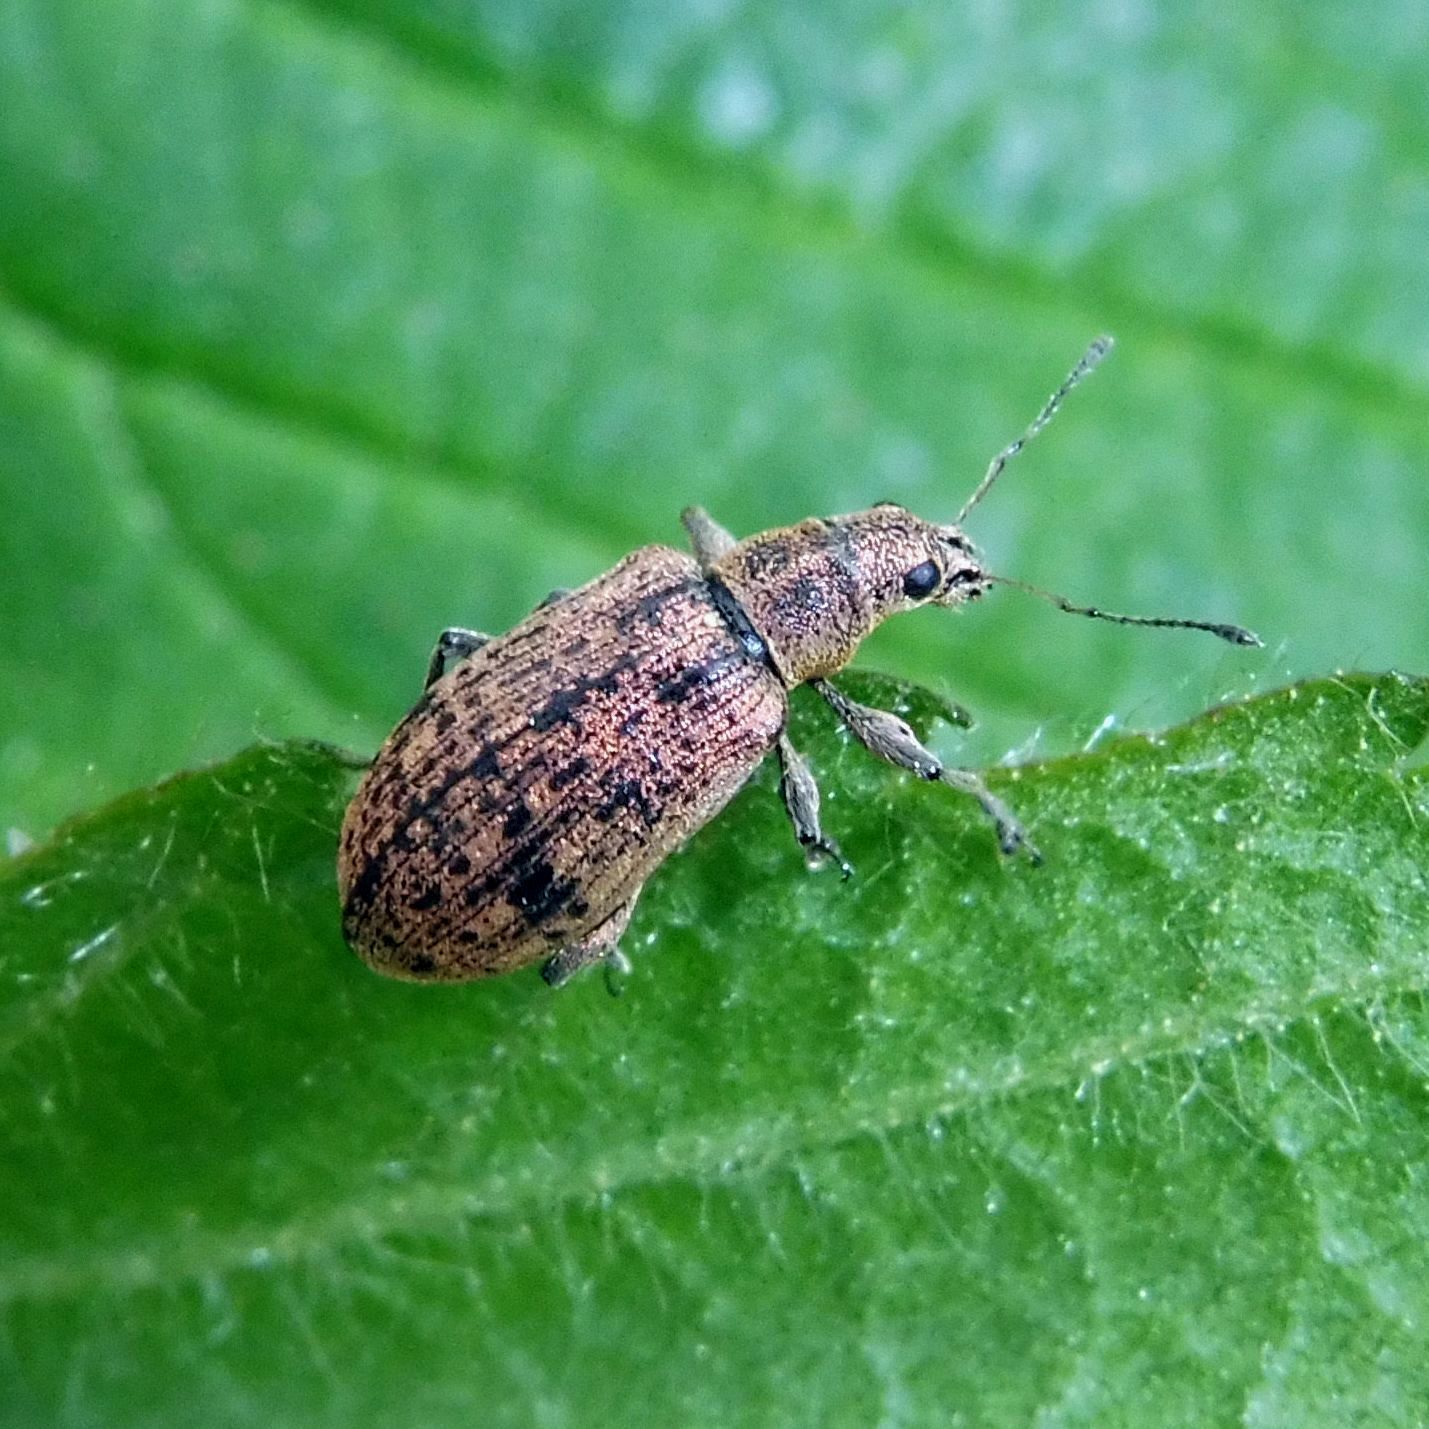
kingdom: Animalia
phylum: Arthropoda
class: Insecta
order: Coleoptera
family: Curculionidae
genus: Polydrusus
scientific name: Polydrusus cervinus
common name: Weevil
